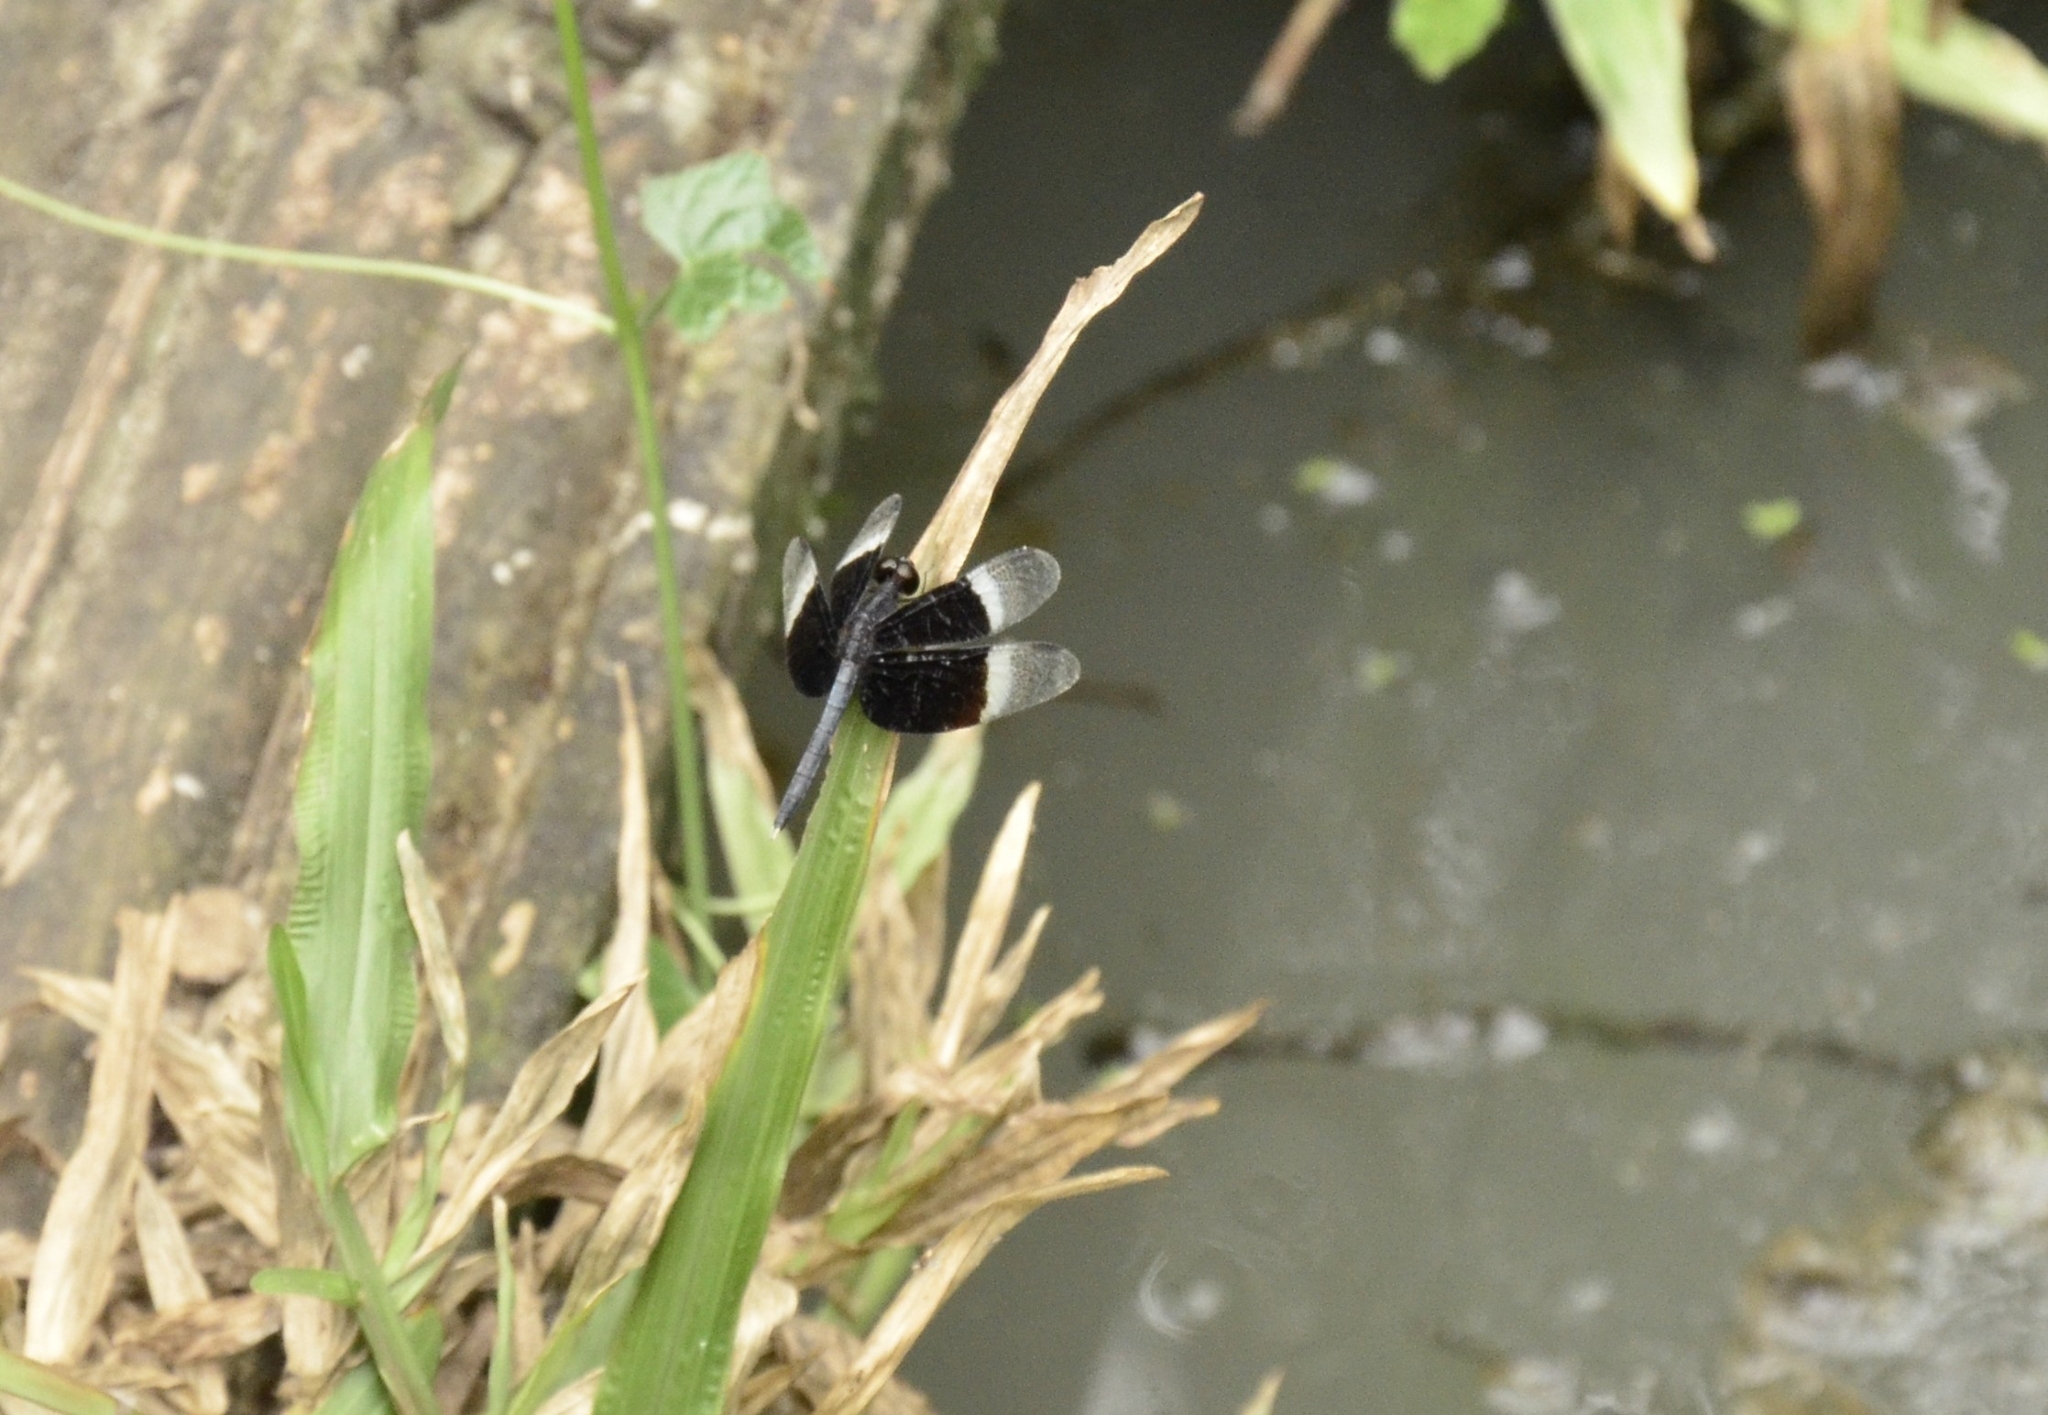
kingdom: Animalia
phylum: Arthropoda
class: Insecta
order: Odonata
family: Libellulidae
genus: Neurothemis
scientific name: Neurothemis tullia
